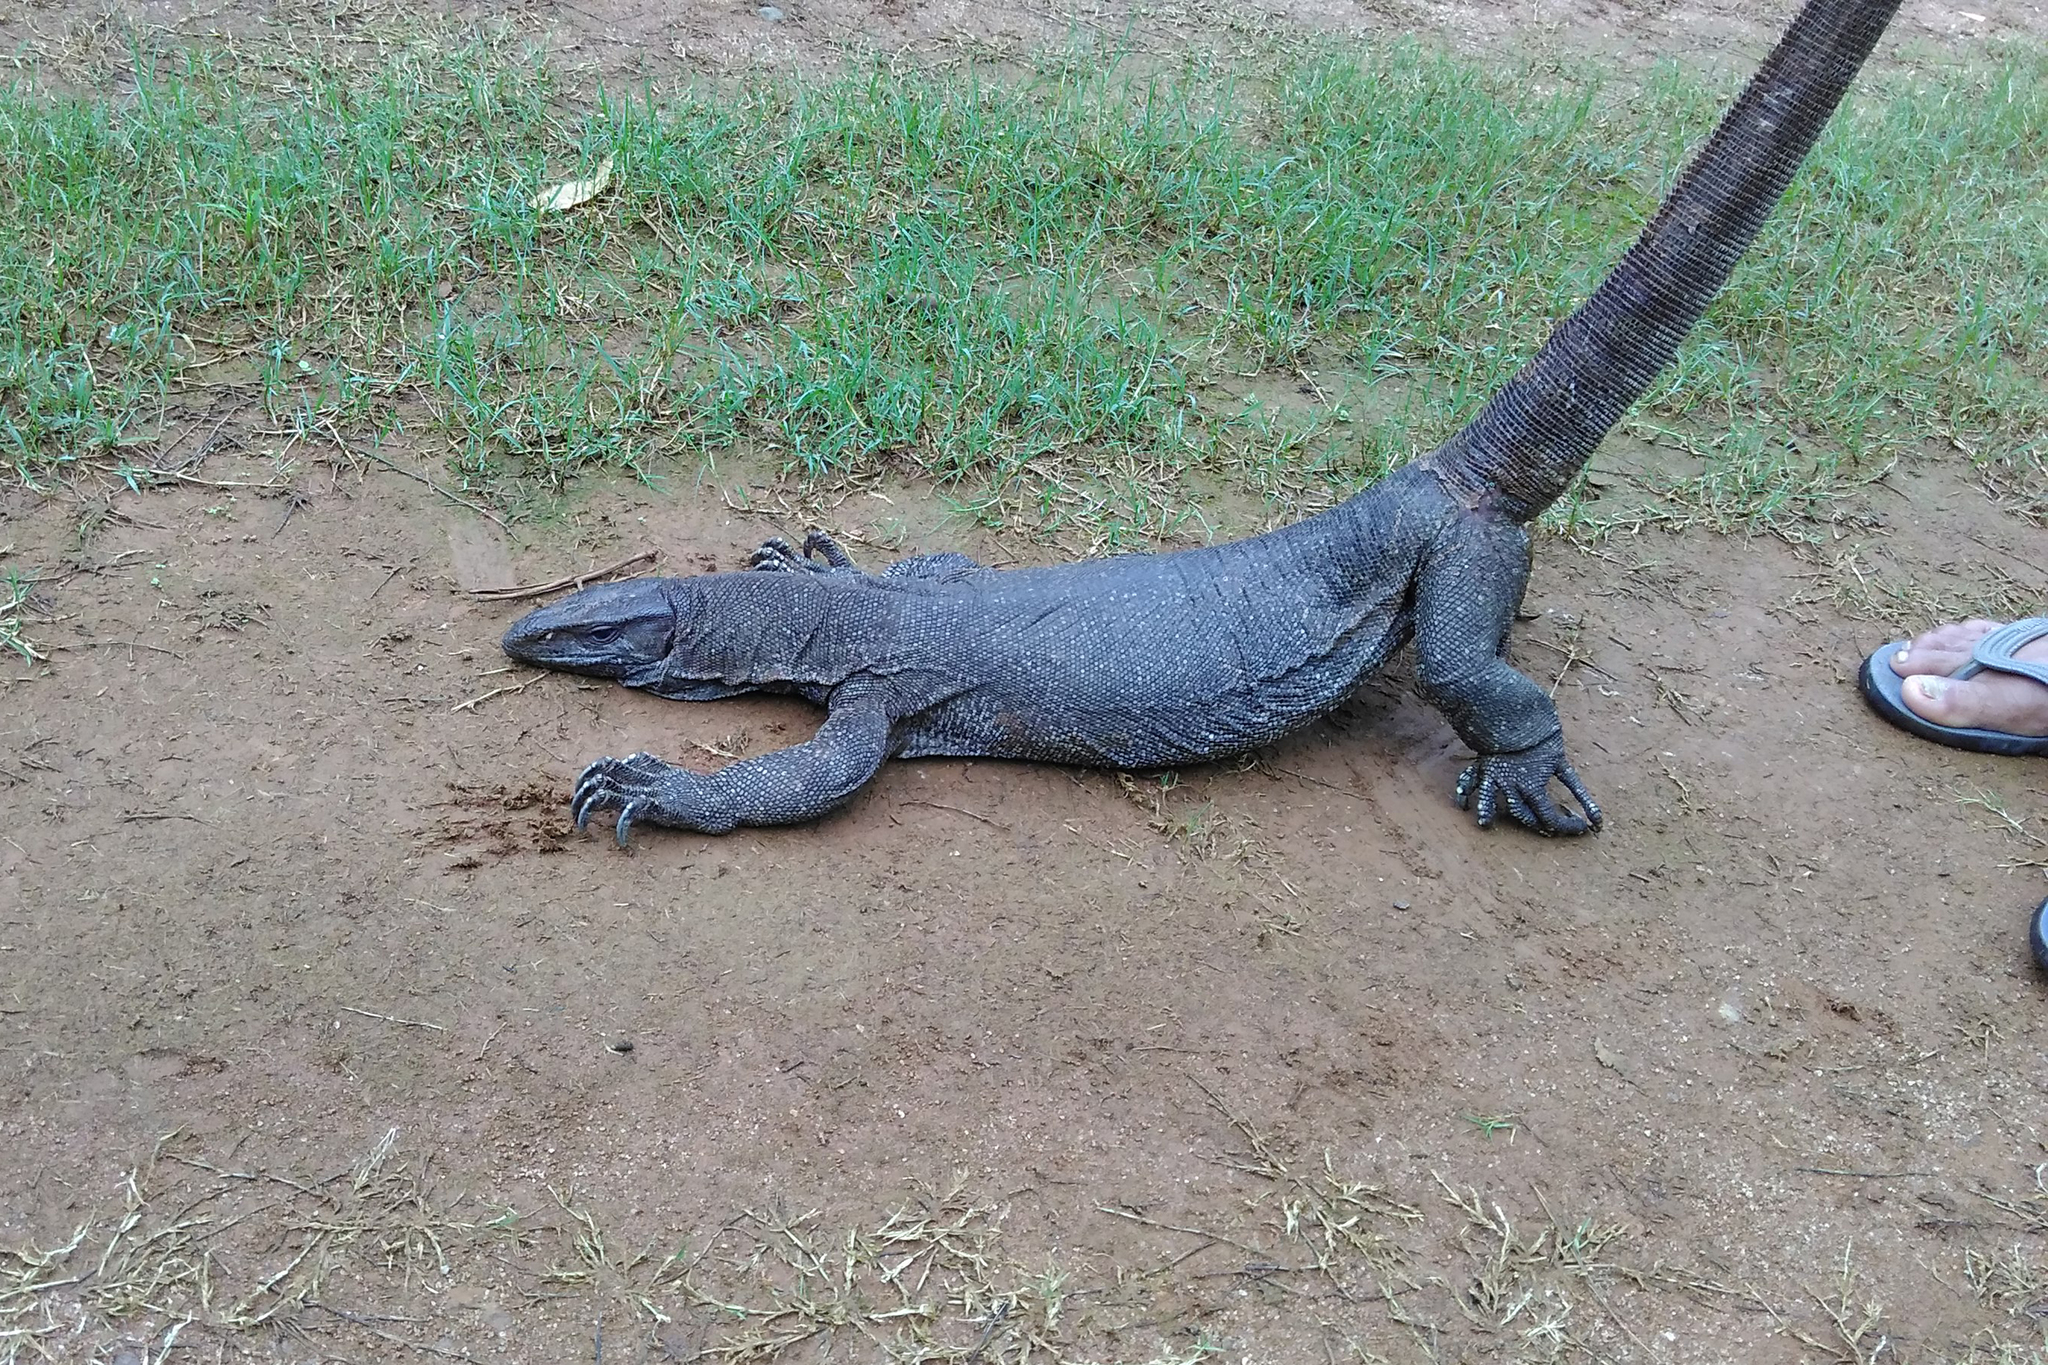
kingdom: Animalia
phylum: Chordata
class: Squamata
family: Varanidae
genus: Varanus
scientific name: Varanus bengalensis
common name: Bengal monitor
